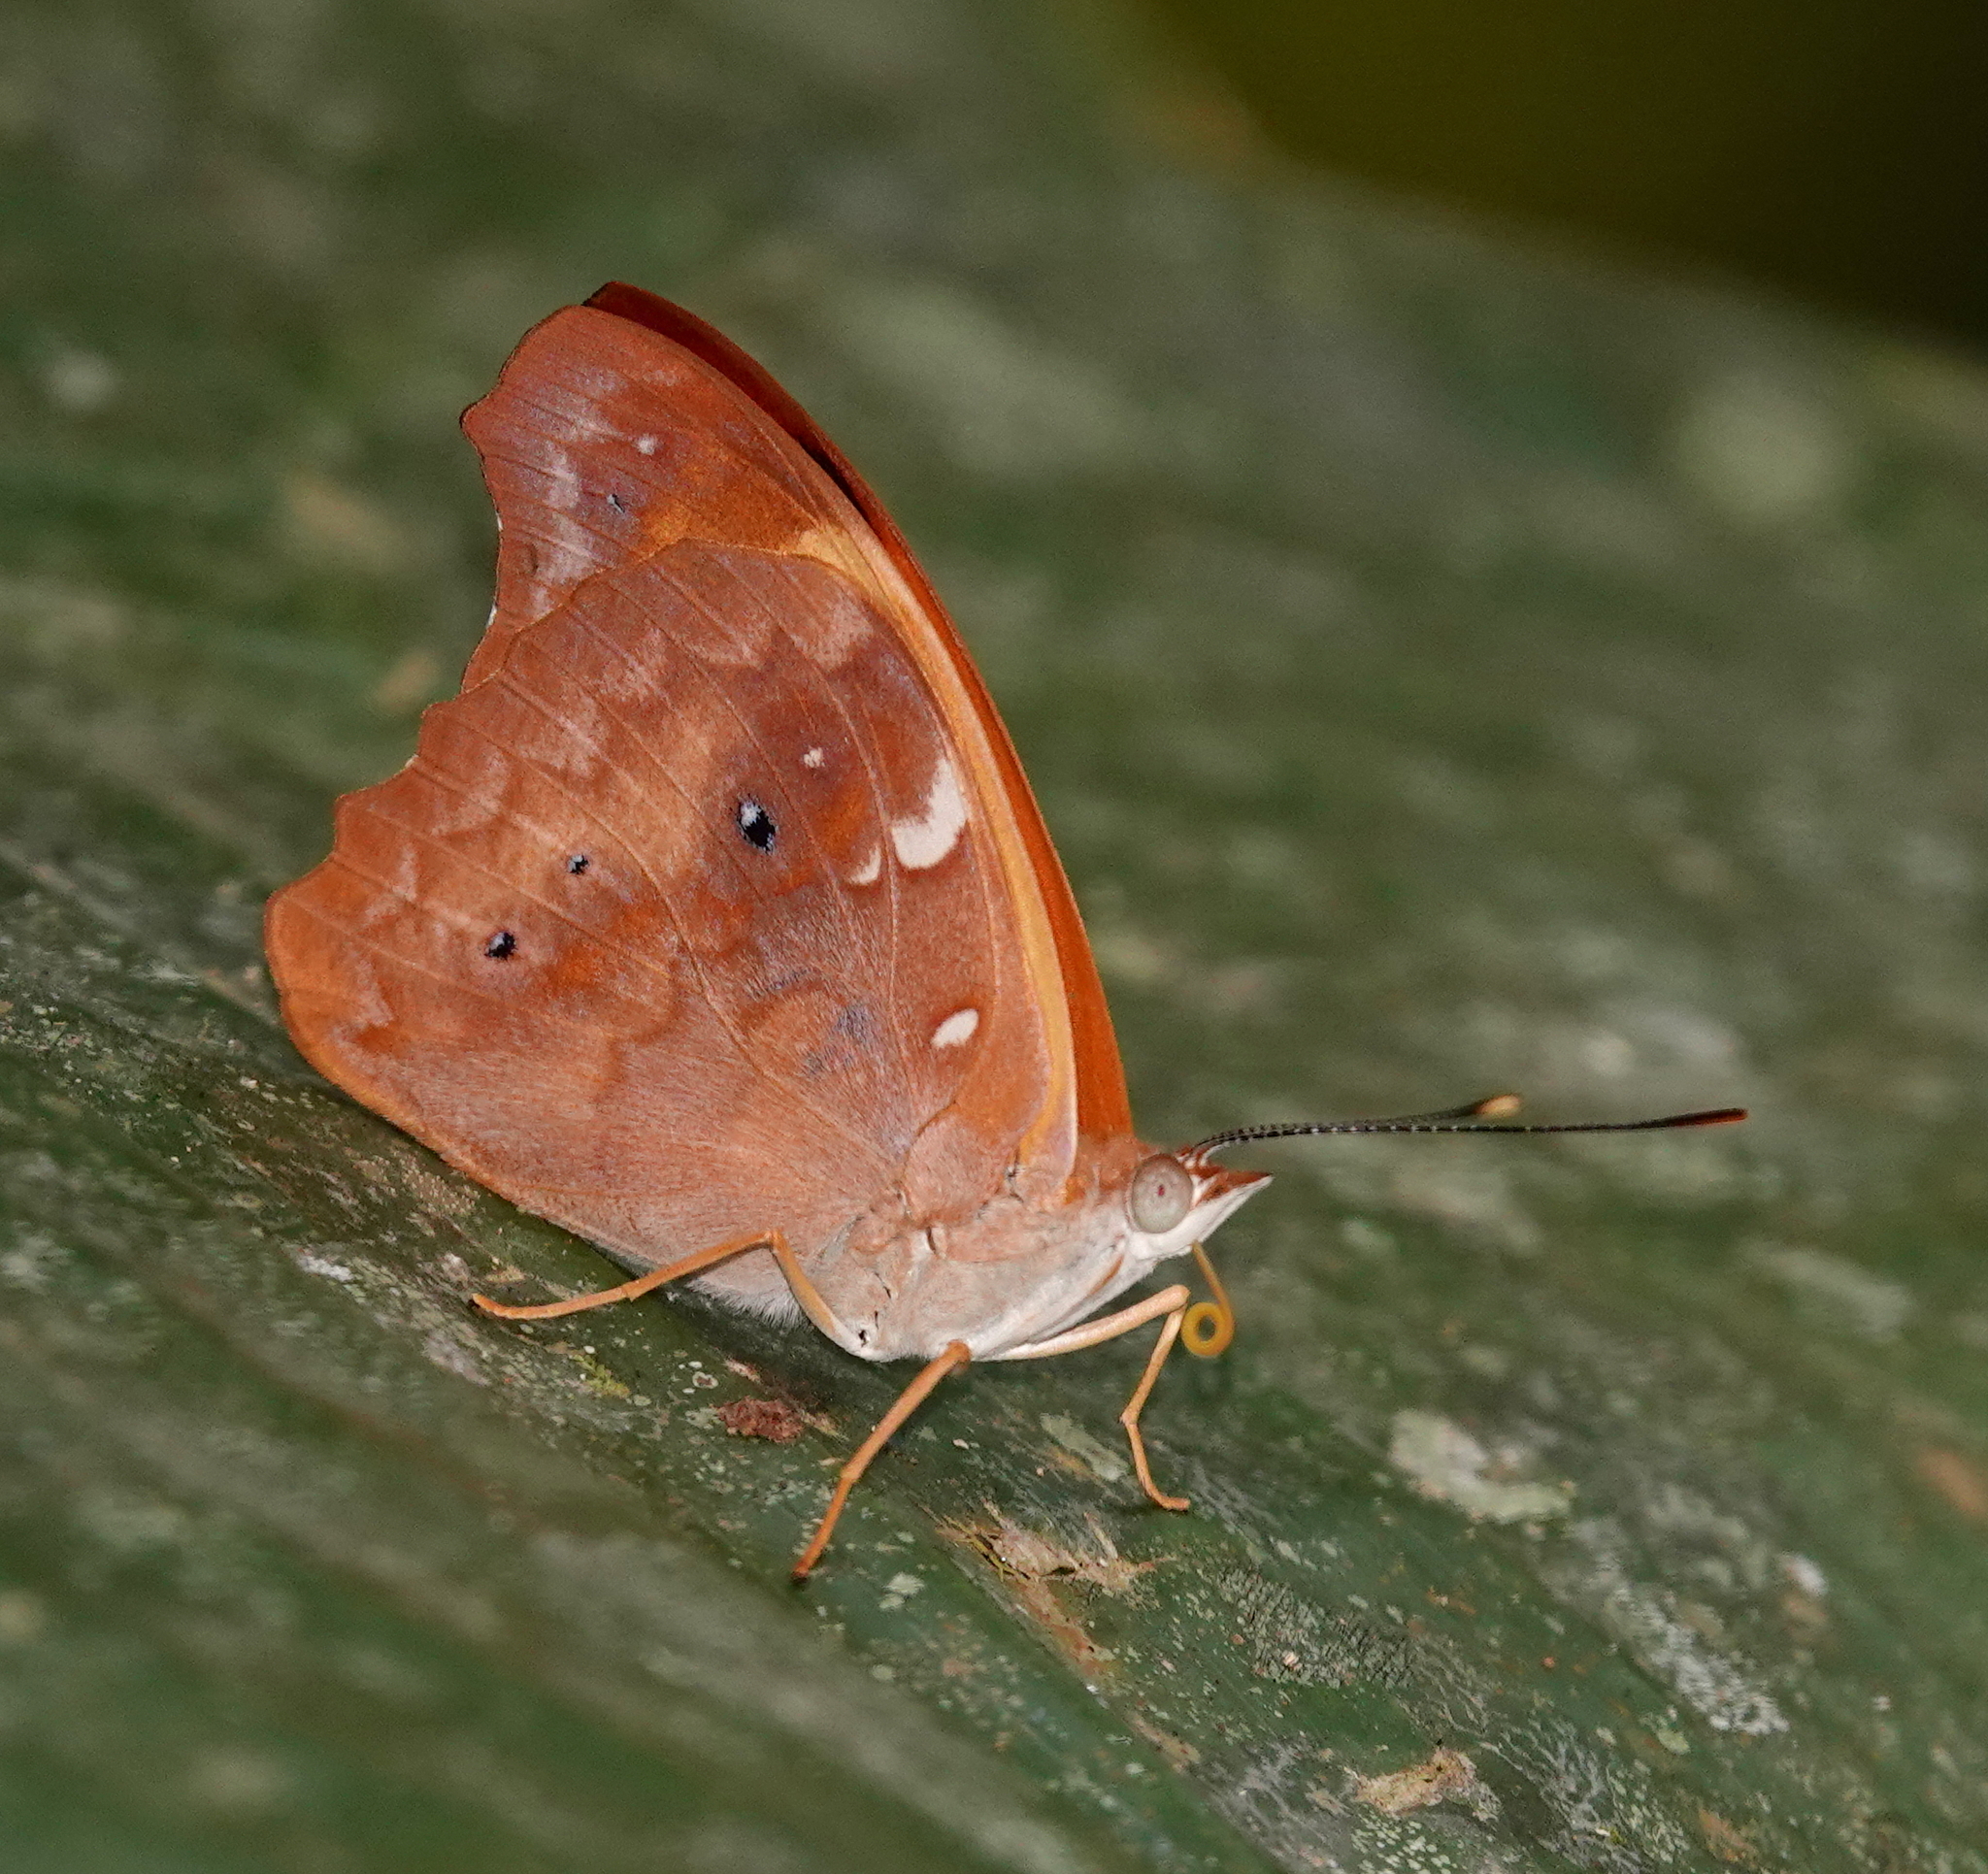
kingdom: Animalia
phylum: Arthropoda
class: Insecta
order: Lepidoptera
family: Nymphalidae
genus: Temenis
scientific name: Temenis laothoe
